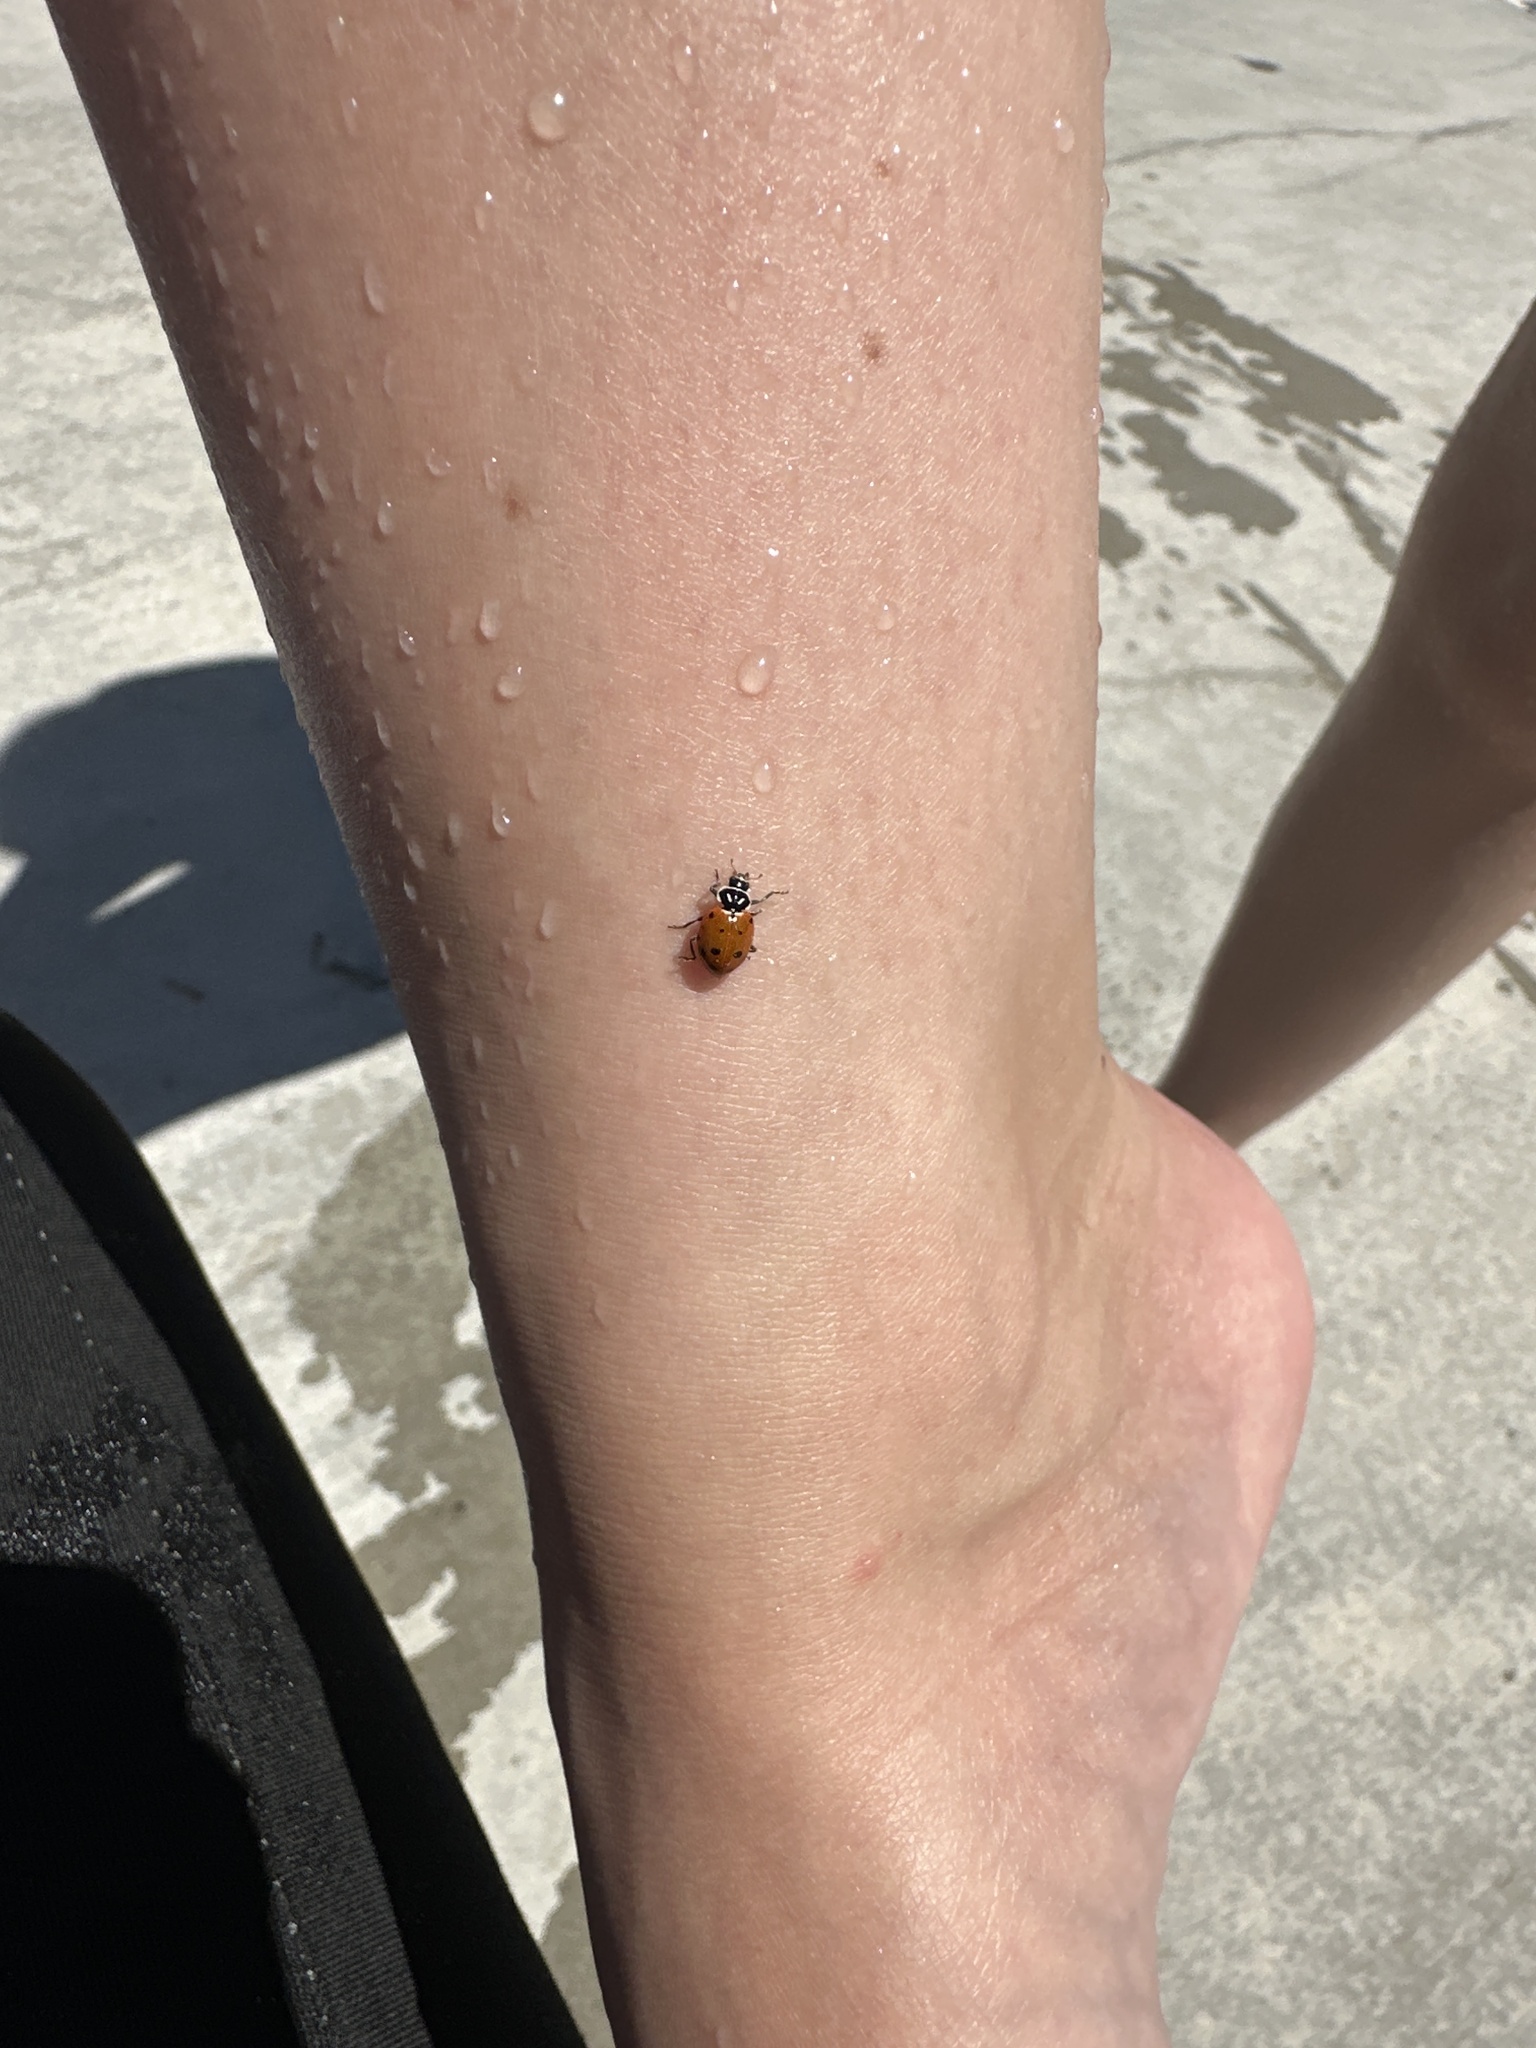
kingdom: Animalia
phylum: Arthropoda
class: Insecta
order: Coleoptera
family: Coccinellidae
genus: Hippodamia
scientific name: Hippodamia convergens
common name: Convergent lady beetle
